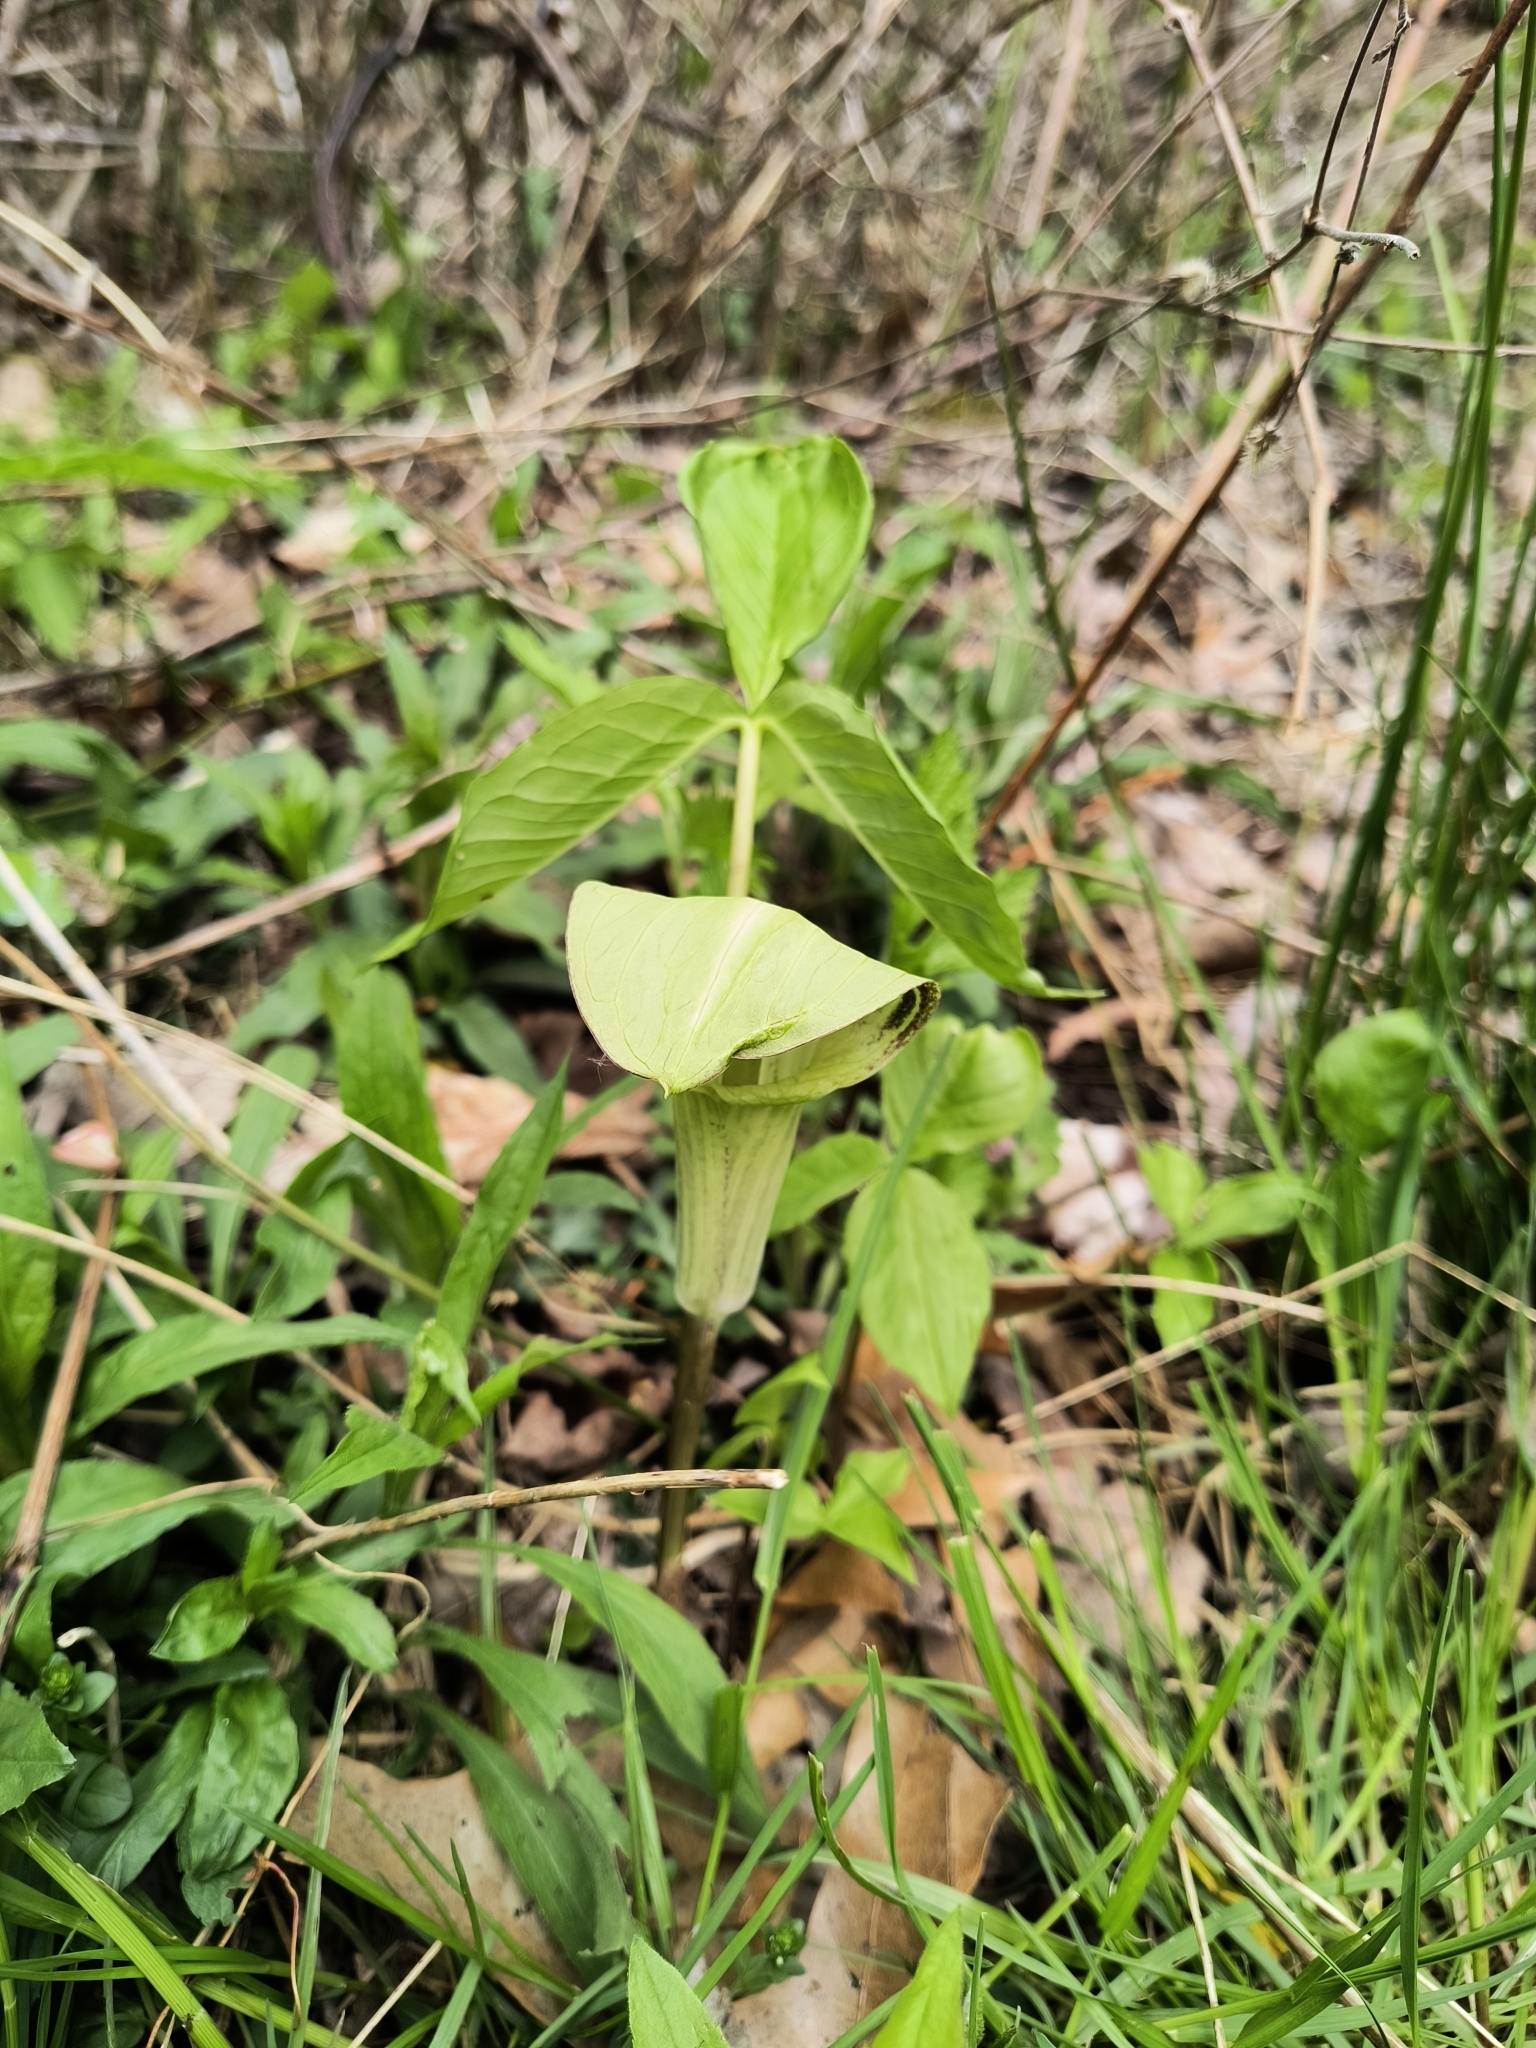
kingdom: Plantae
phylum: Tracheophyta
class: Liliopsida
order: Alismatales
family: Araceae
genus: Arisaema
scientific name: Arisaema triphyllum
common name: Jack-in-the-pulpit
